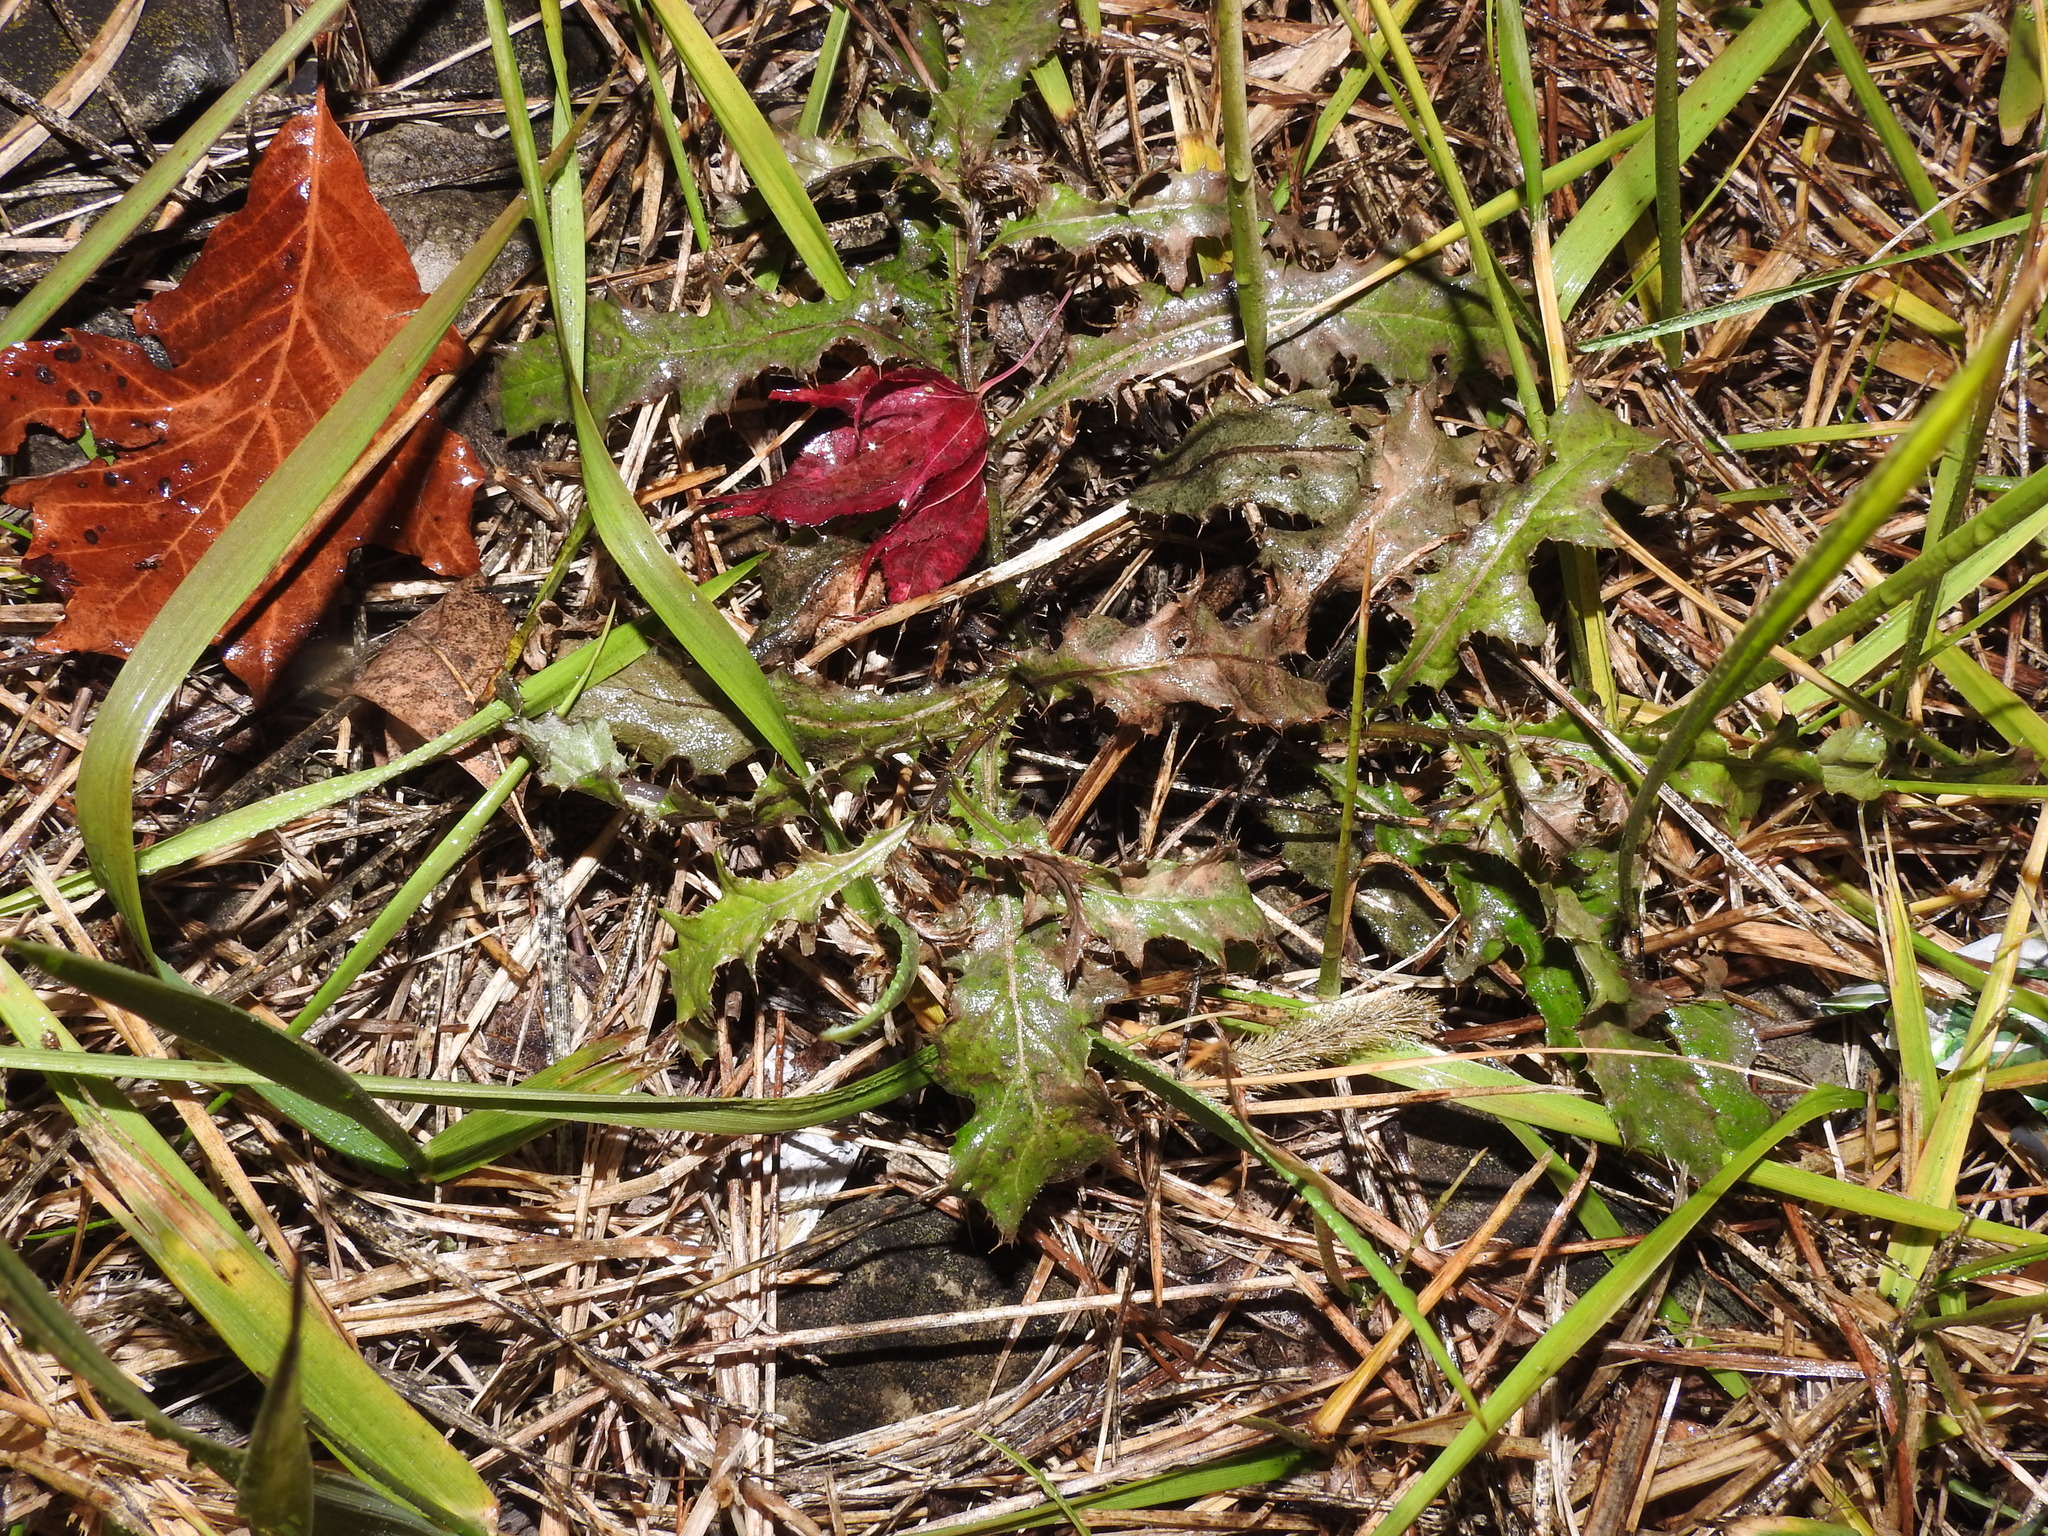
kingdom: Plantae
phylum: Tracheophyta
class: Magnoliopsida
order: Asterales
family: Asteraceae
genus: Cirsium
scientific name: Cirsium arvense
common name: Creeping thistle
